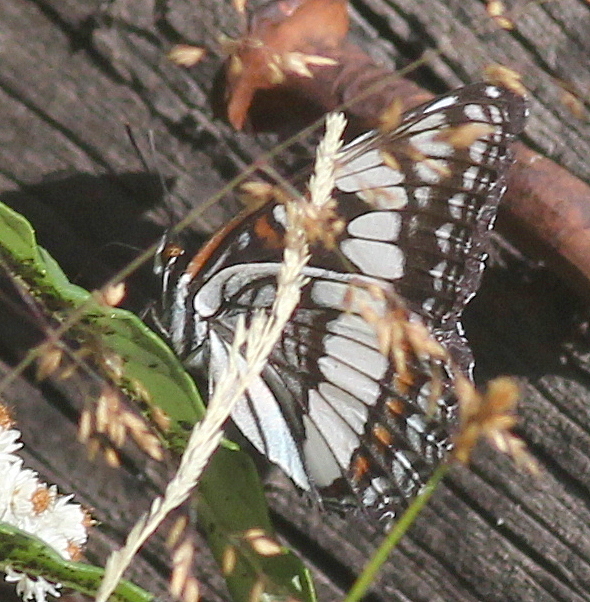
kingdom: Animalia
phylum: Arthropoda
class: Insecta
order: Lepidoptera
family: Nymphalidae
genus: Limenitis
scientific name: Limenitis weidemeyerii
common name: Weidemeyer's admiral
